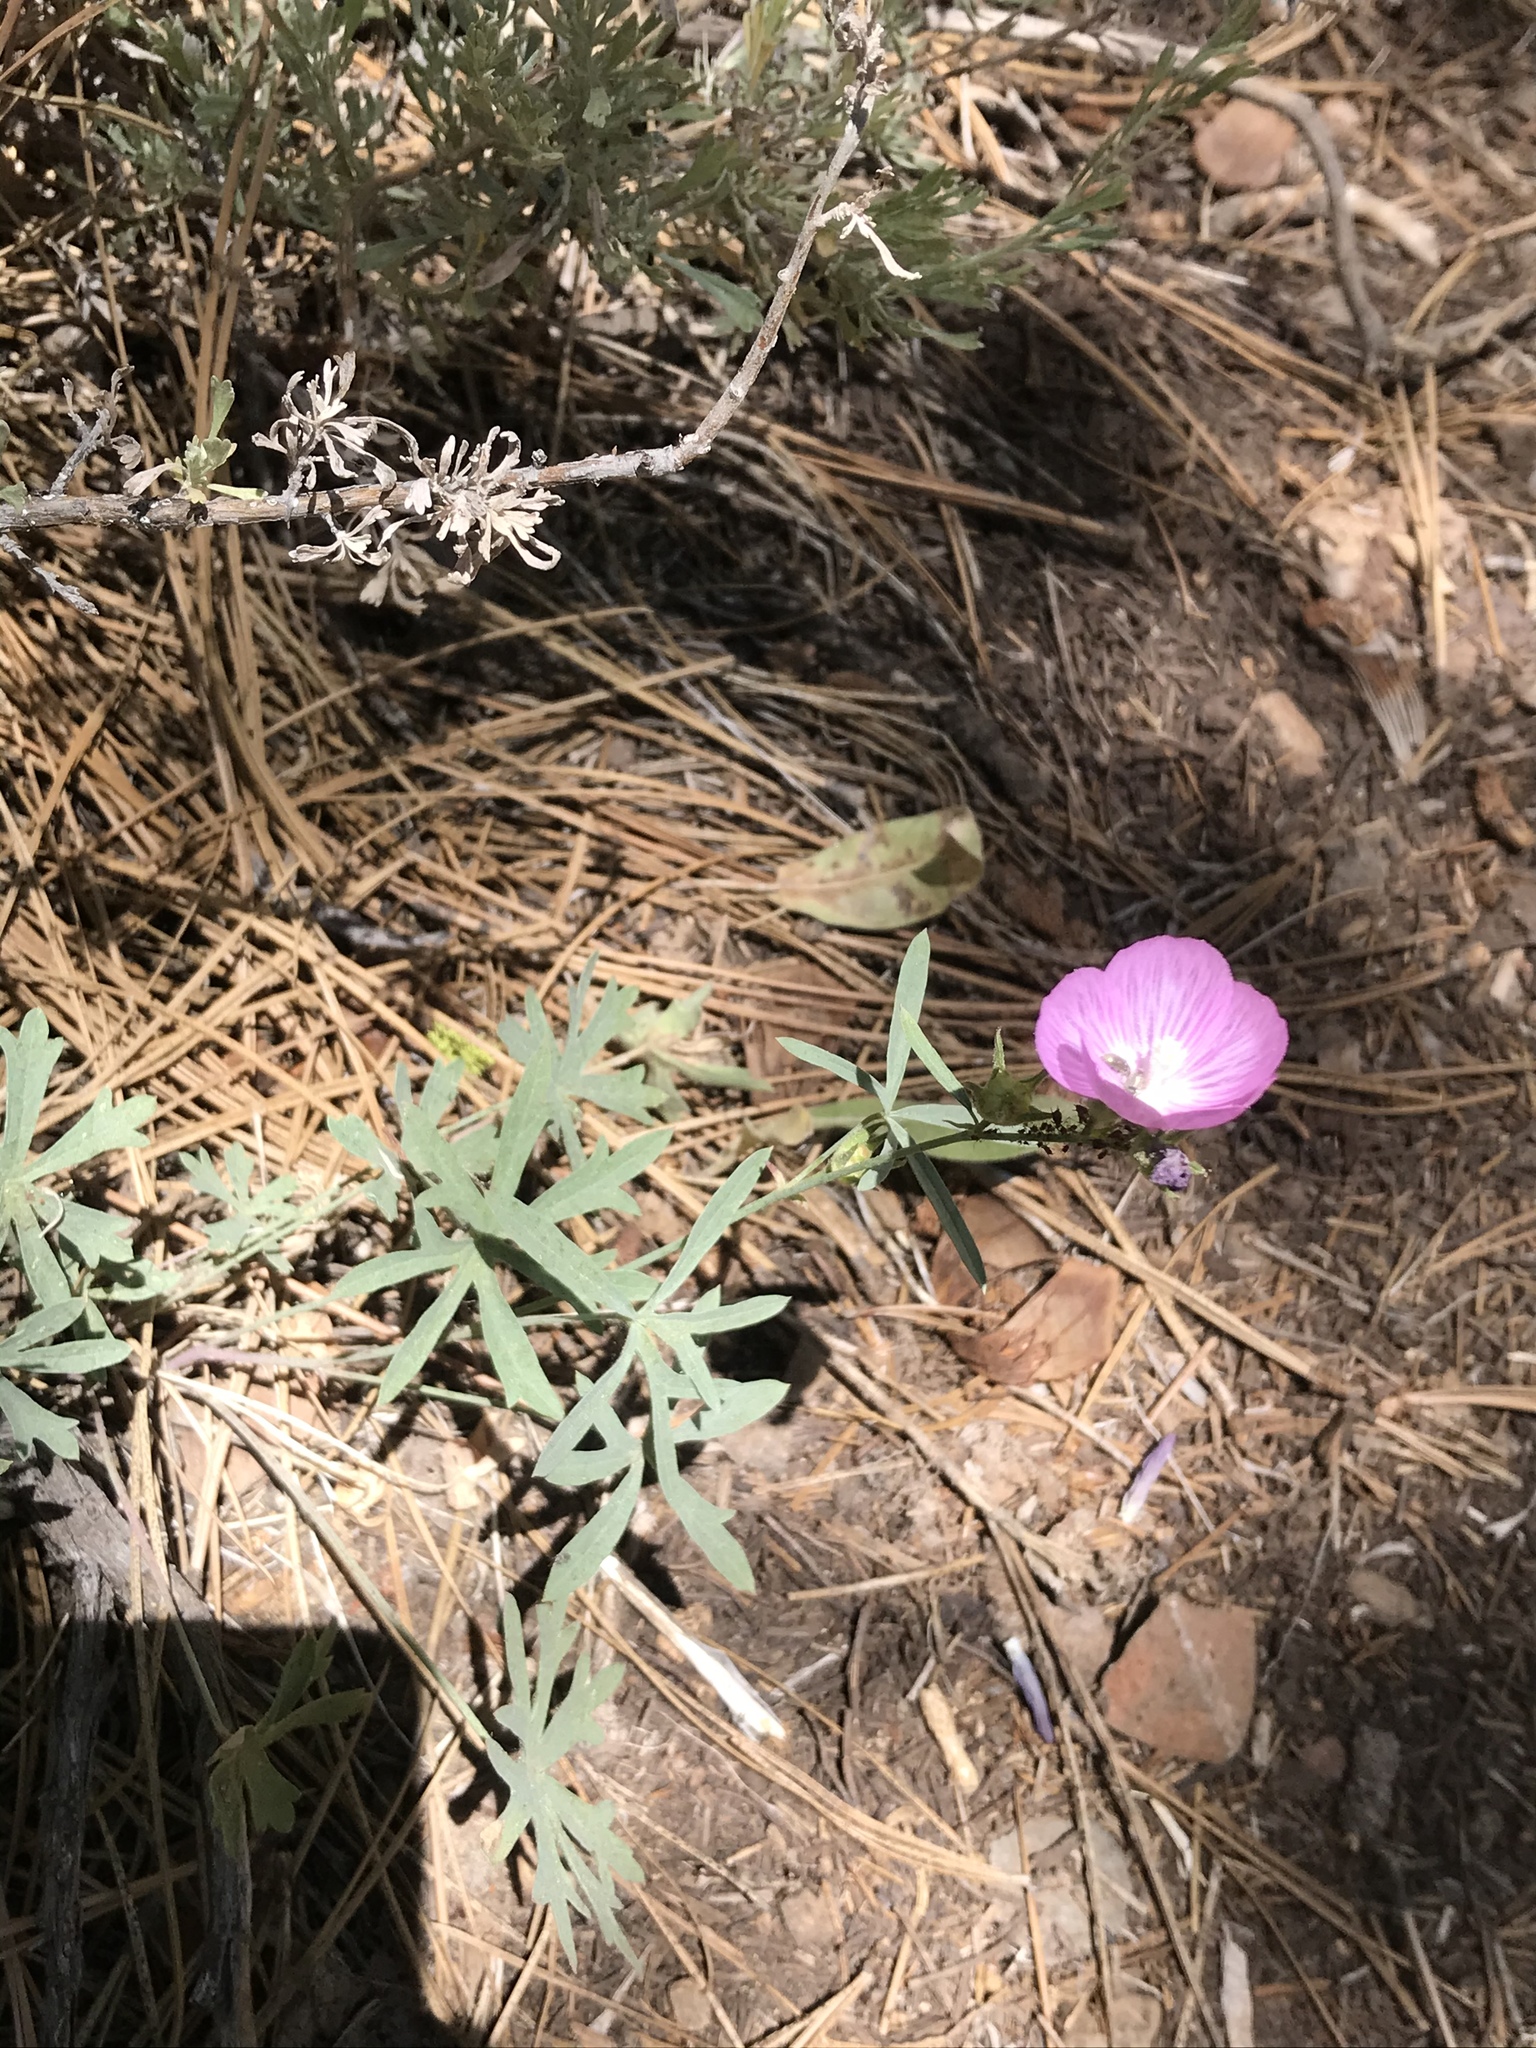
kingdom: Plantae
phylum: Tracheophyta
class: Magnoliopsida
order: Malvales
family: Malvaceae
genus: Sidalcea
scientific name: Sidalcea glaucescens
